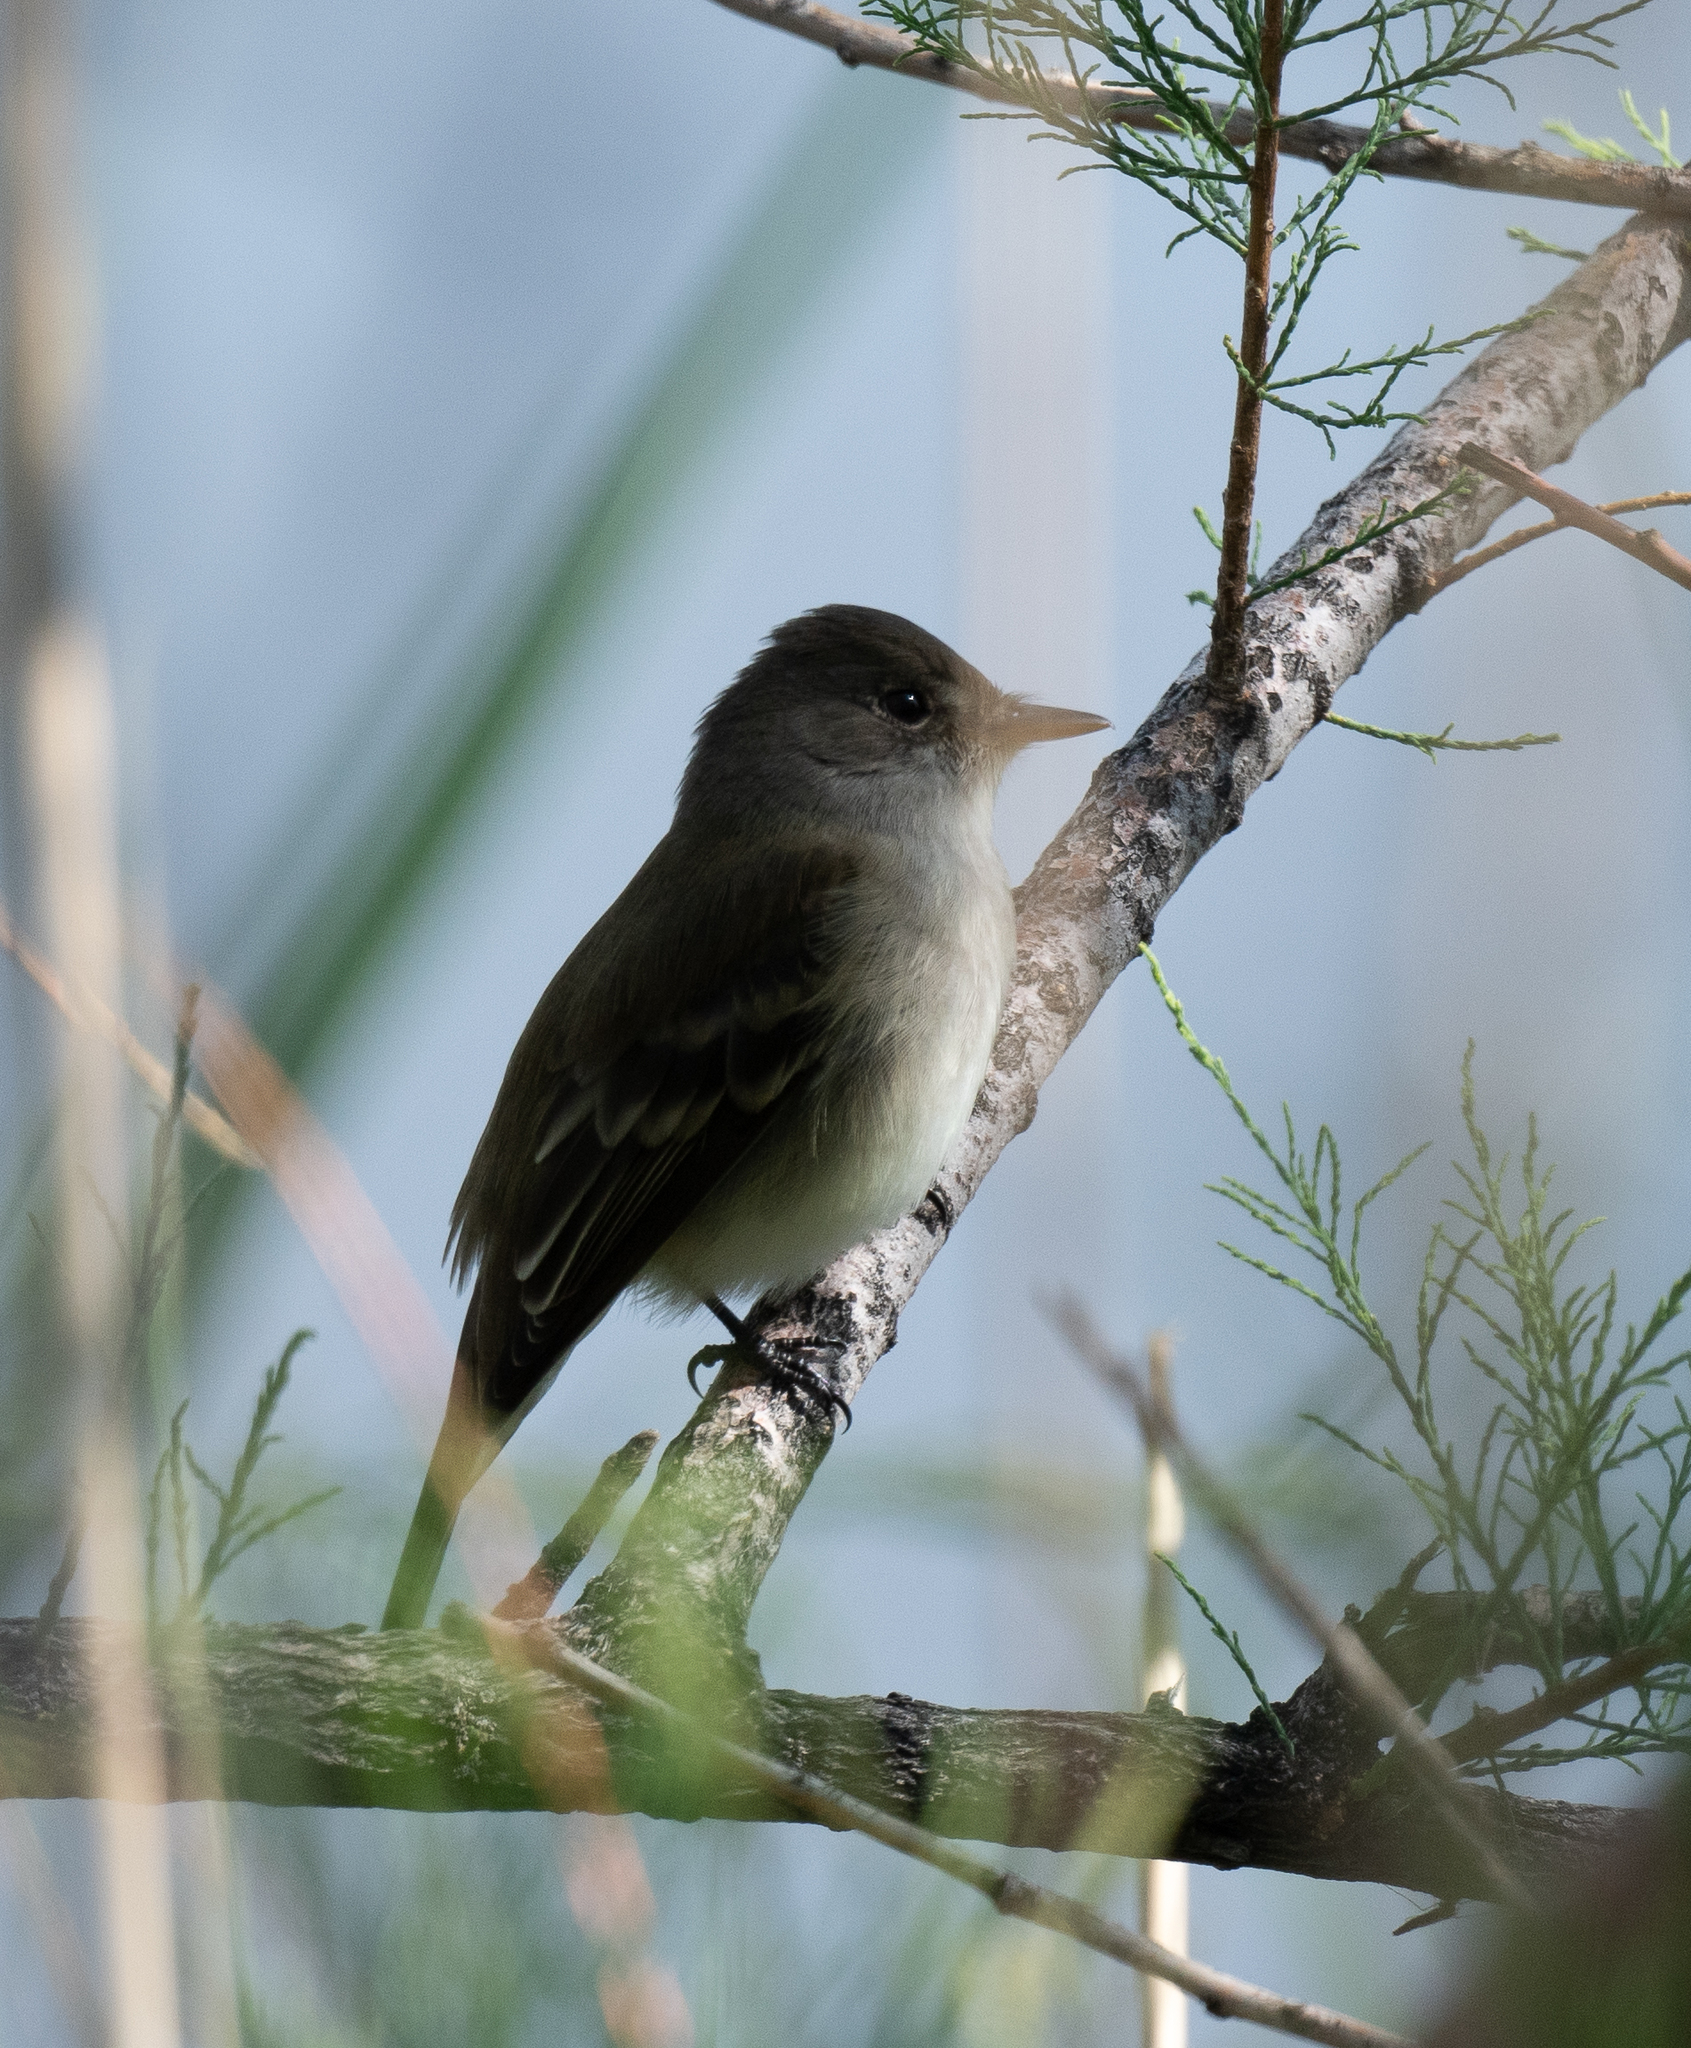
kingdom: Animalia
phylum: Chordata
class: Aves
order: Passeriformes
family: Tyrannidae
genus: Empidonax
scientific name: Empidonax traillii
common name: Willow flycatcher
